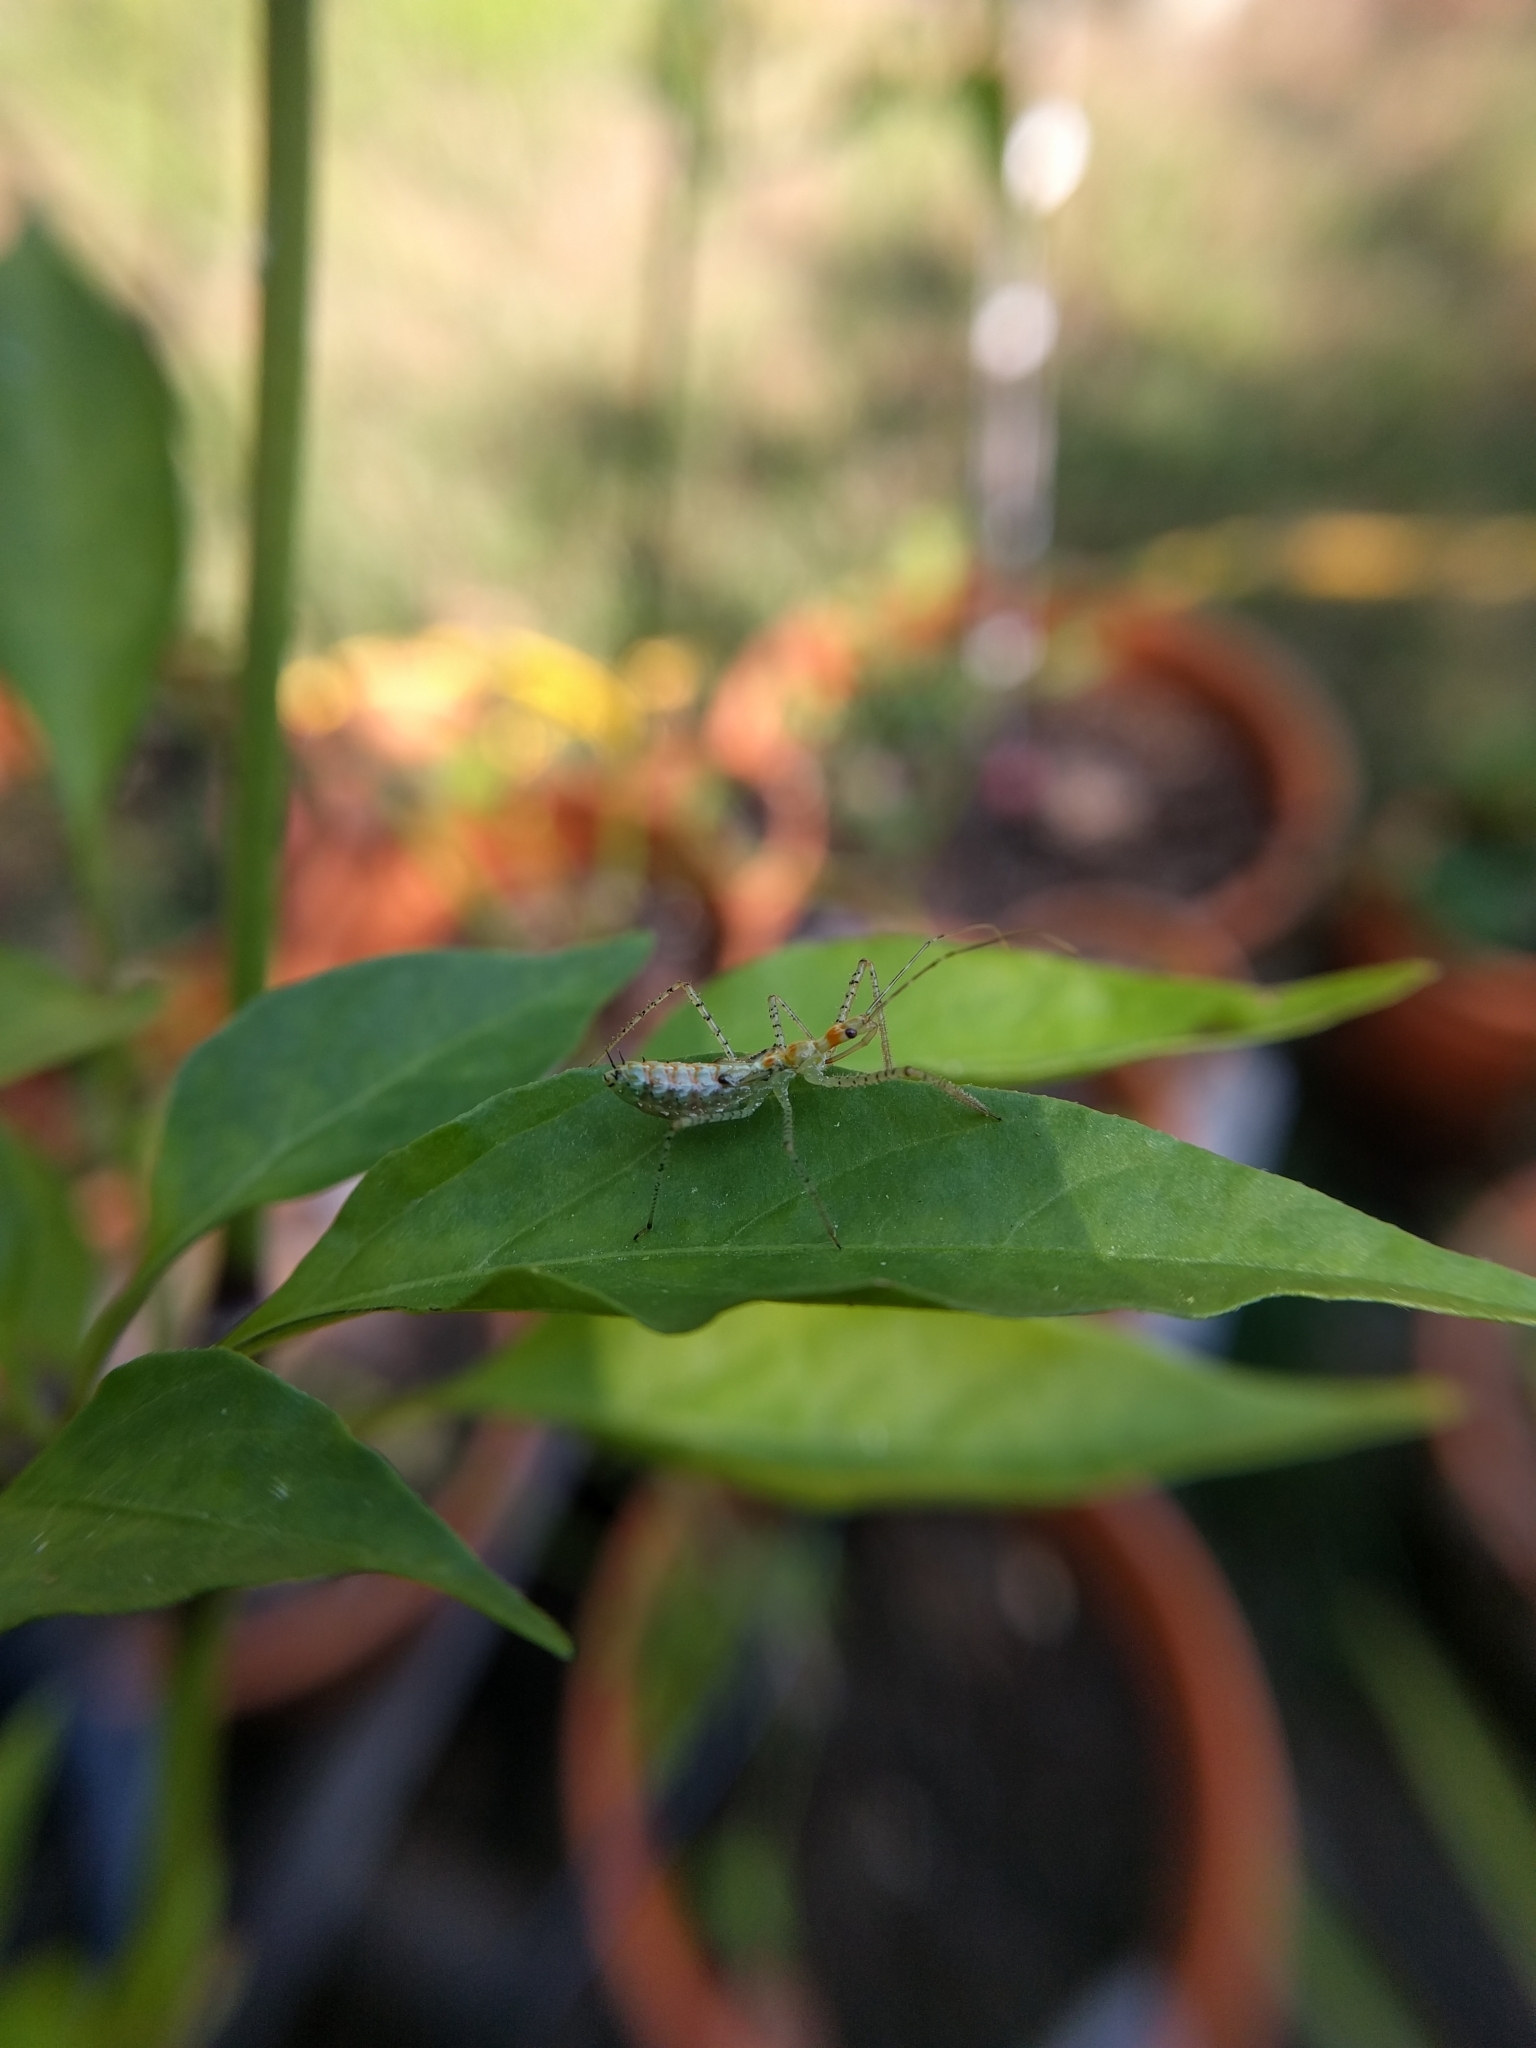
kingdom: Animalia
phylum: Arthropoda
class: Insecta
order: Hemiptera
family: Reduviidae
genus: Zelus
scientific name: Zelus renardii
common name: Assassin bug
